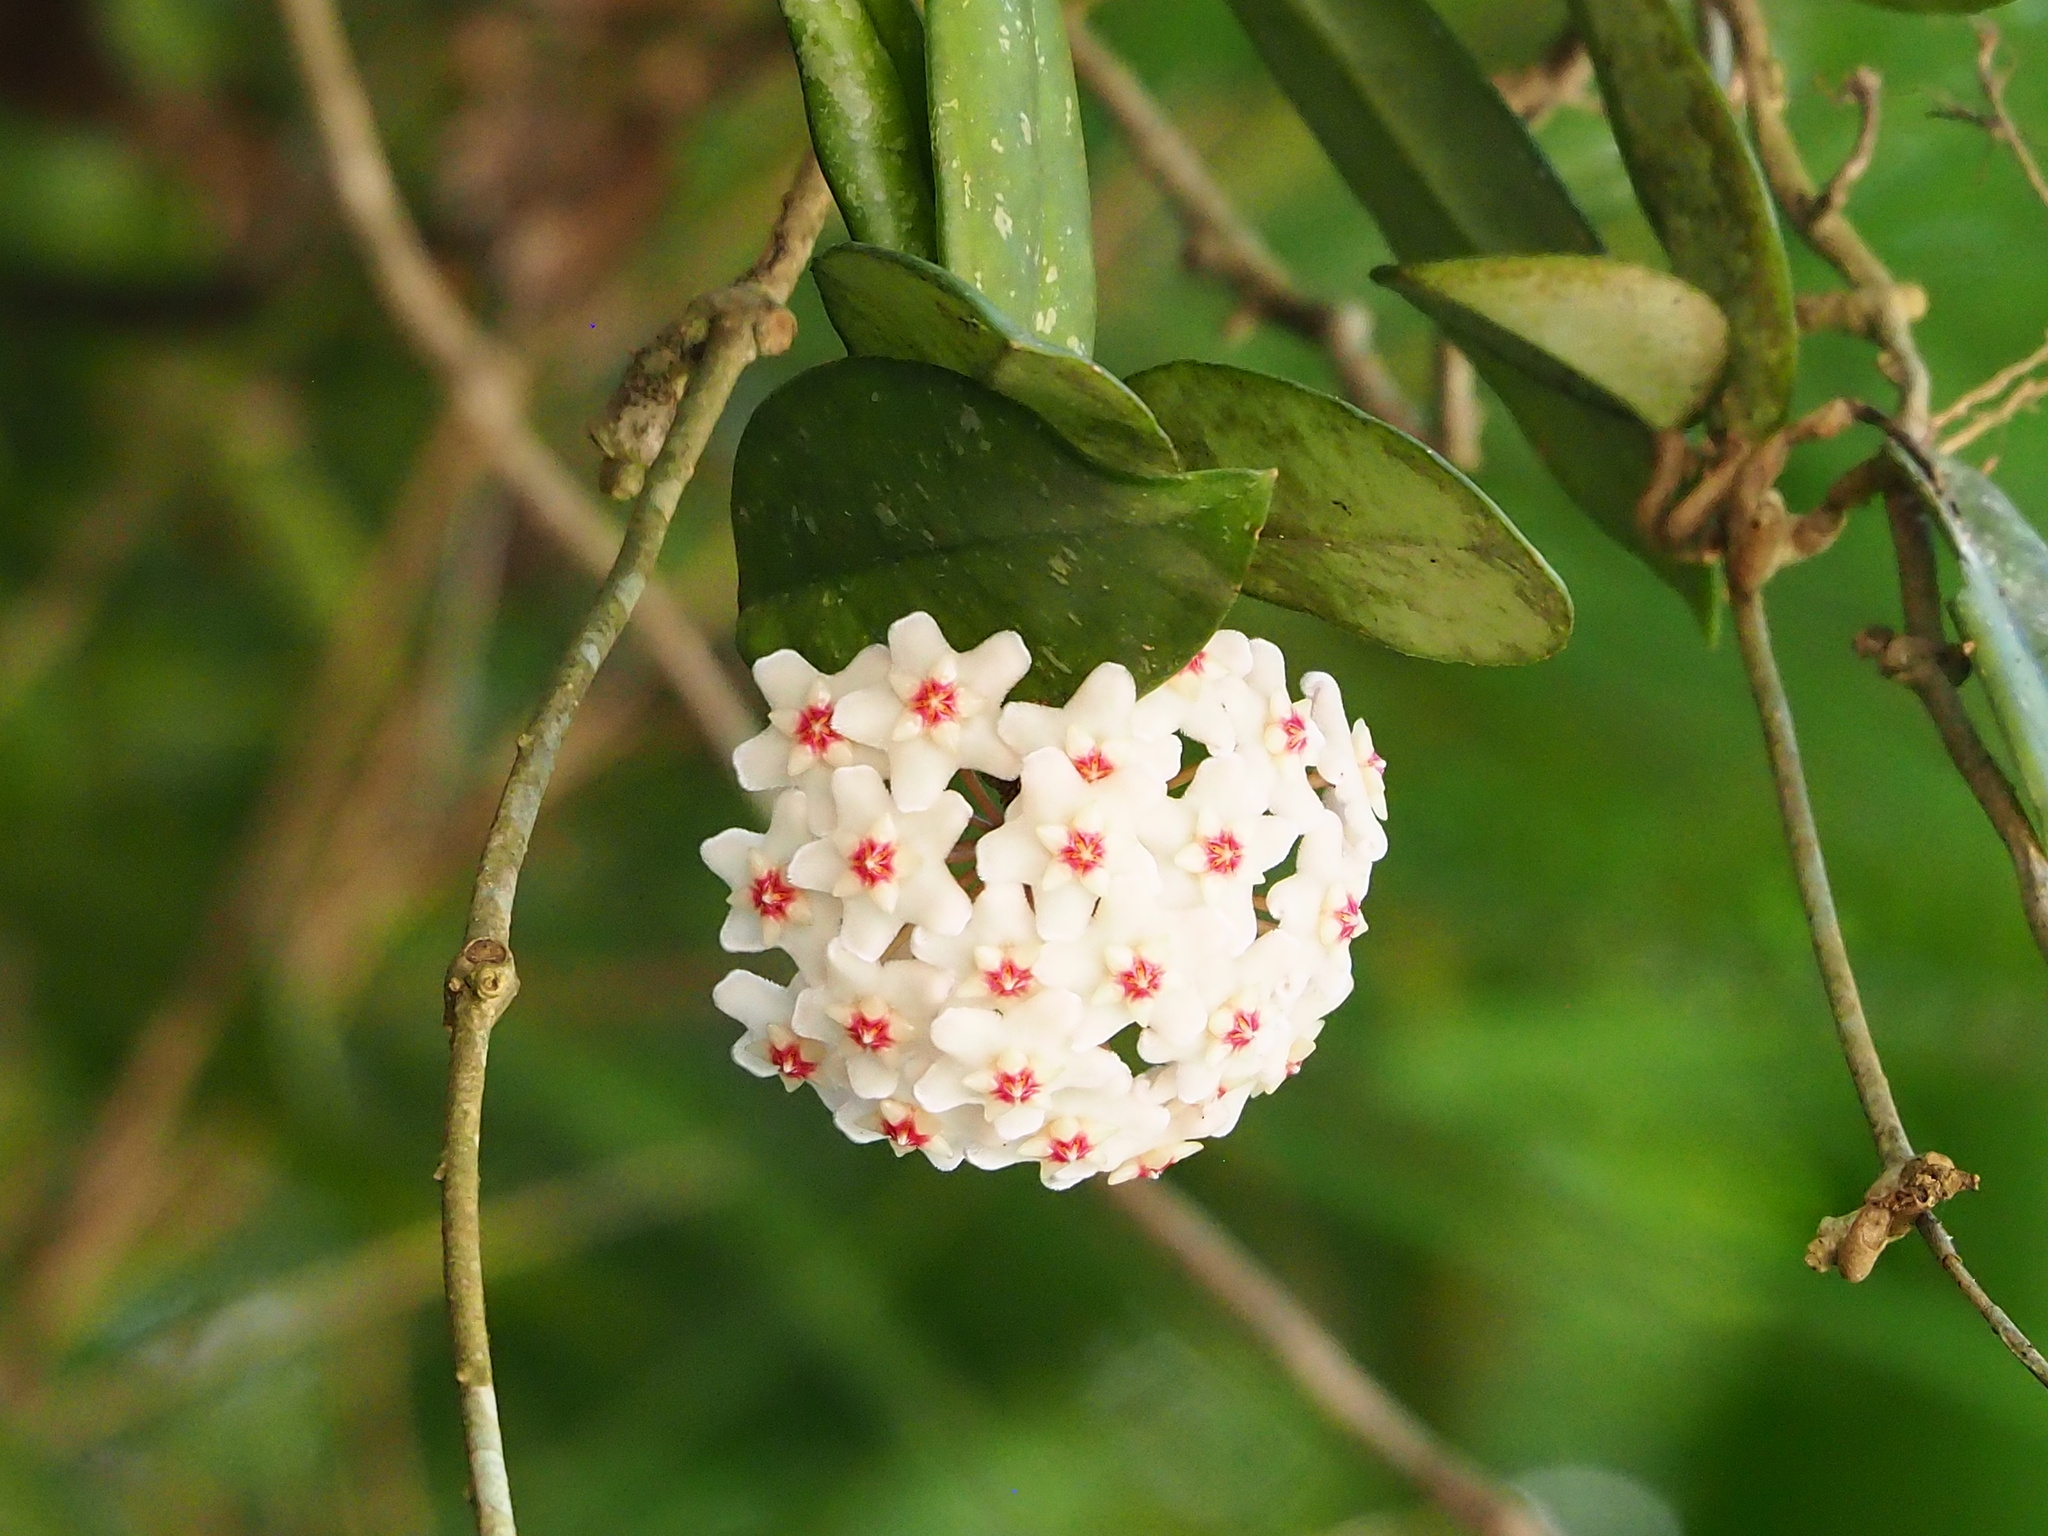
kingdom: Plantae
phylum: Tracheophyta
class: Magnoliopsida
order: Gentianales
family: Apocynaceae
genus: Hoya
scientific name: Hoya carnosa
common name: Honeyplant
